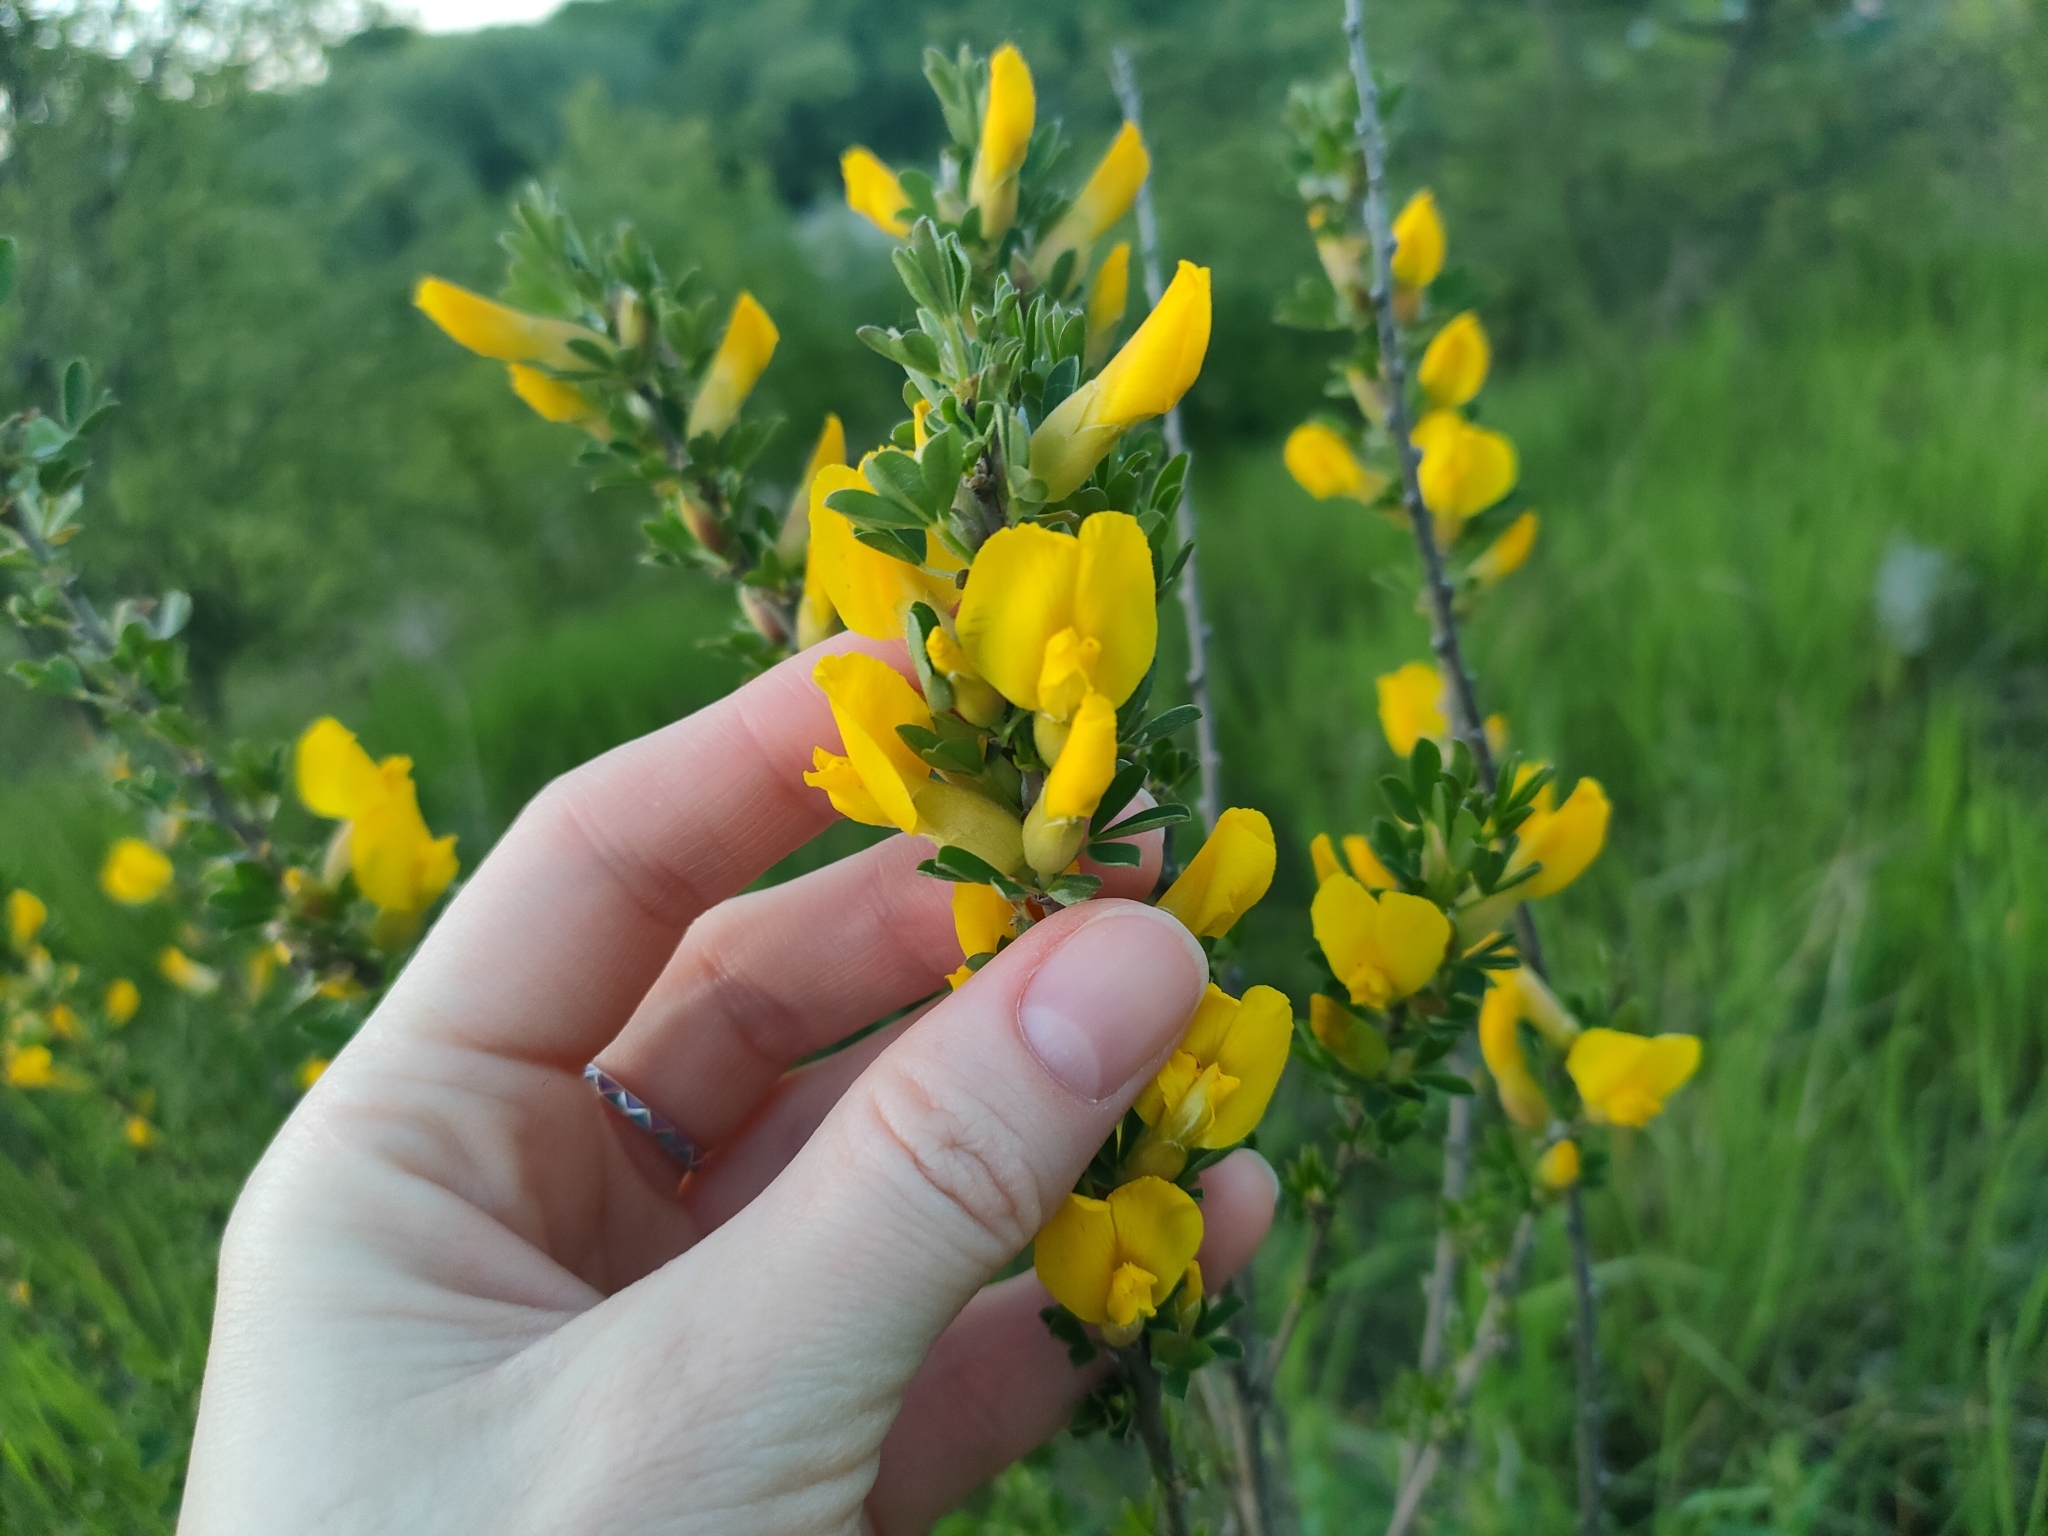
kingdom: Plantae
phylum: Tracheophyta
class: Magnoliopsida
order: Fabales
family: Fabaceae
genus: Chamaecytisus
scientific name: Chamaecytisus ruthenicus
